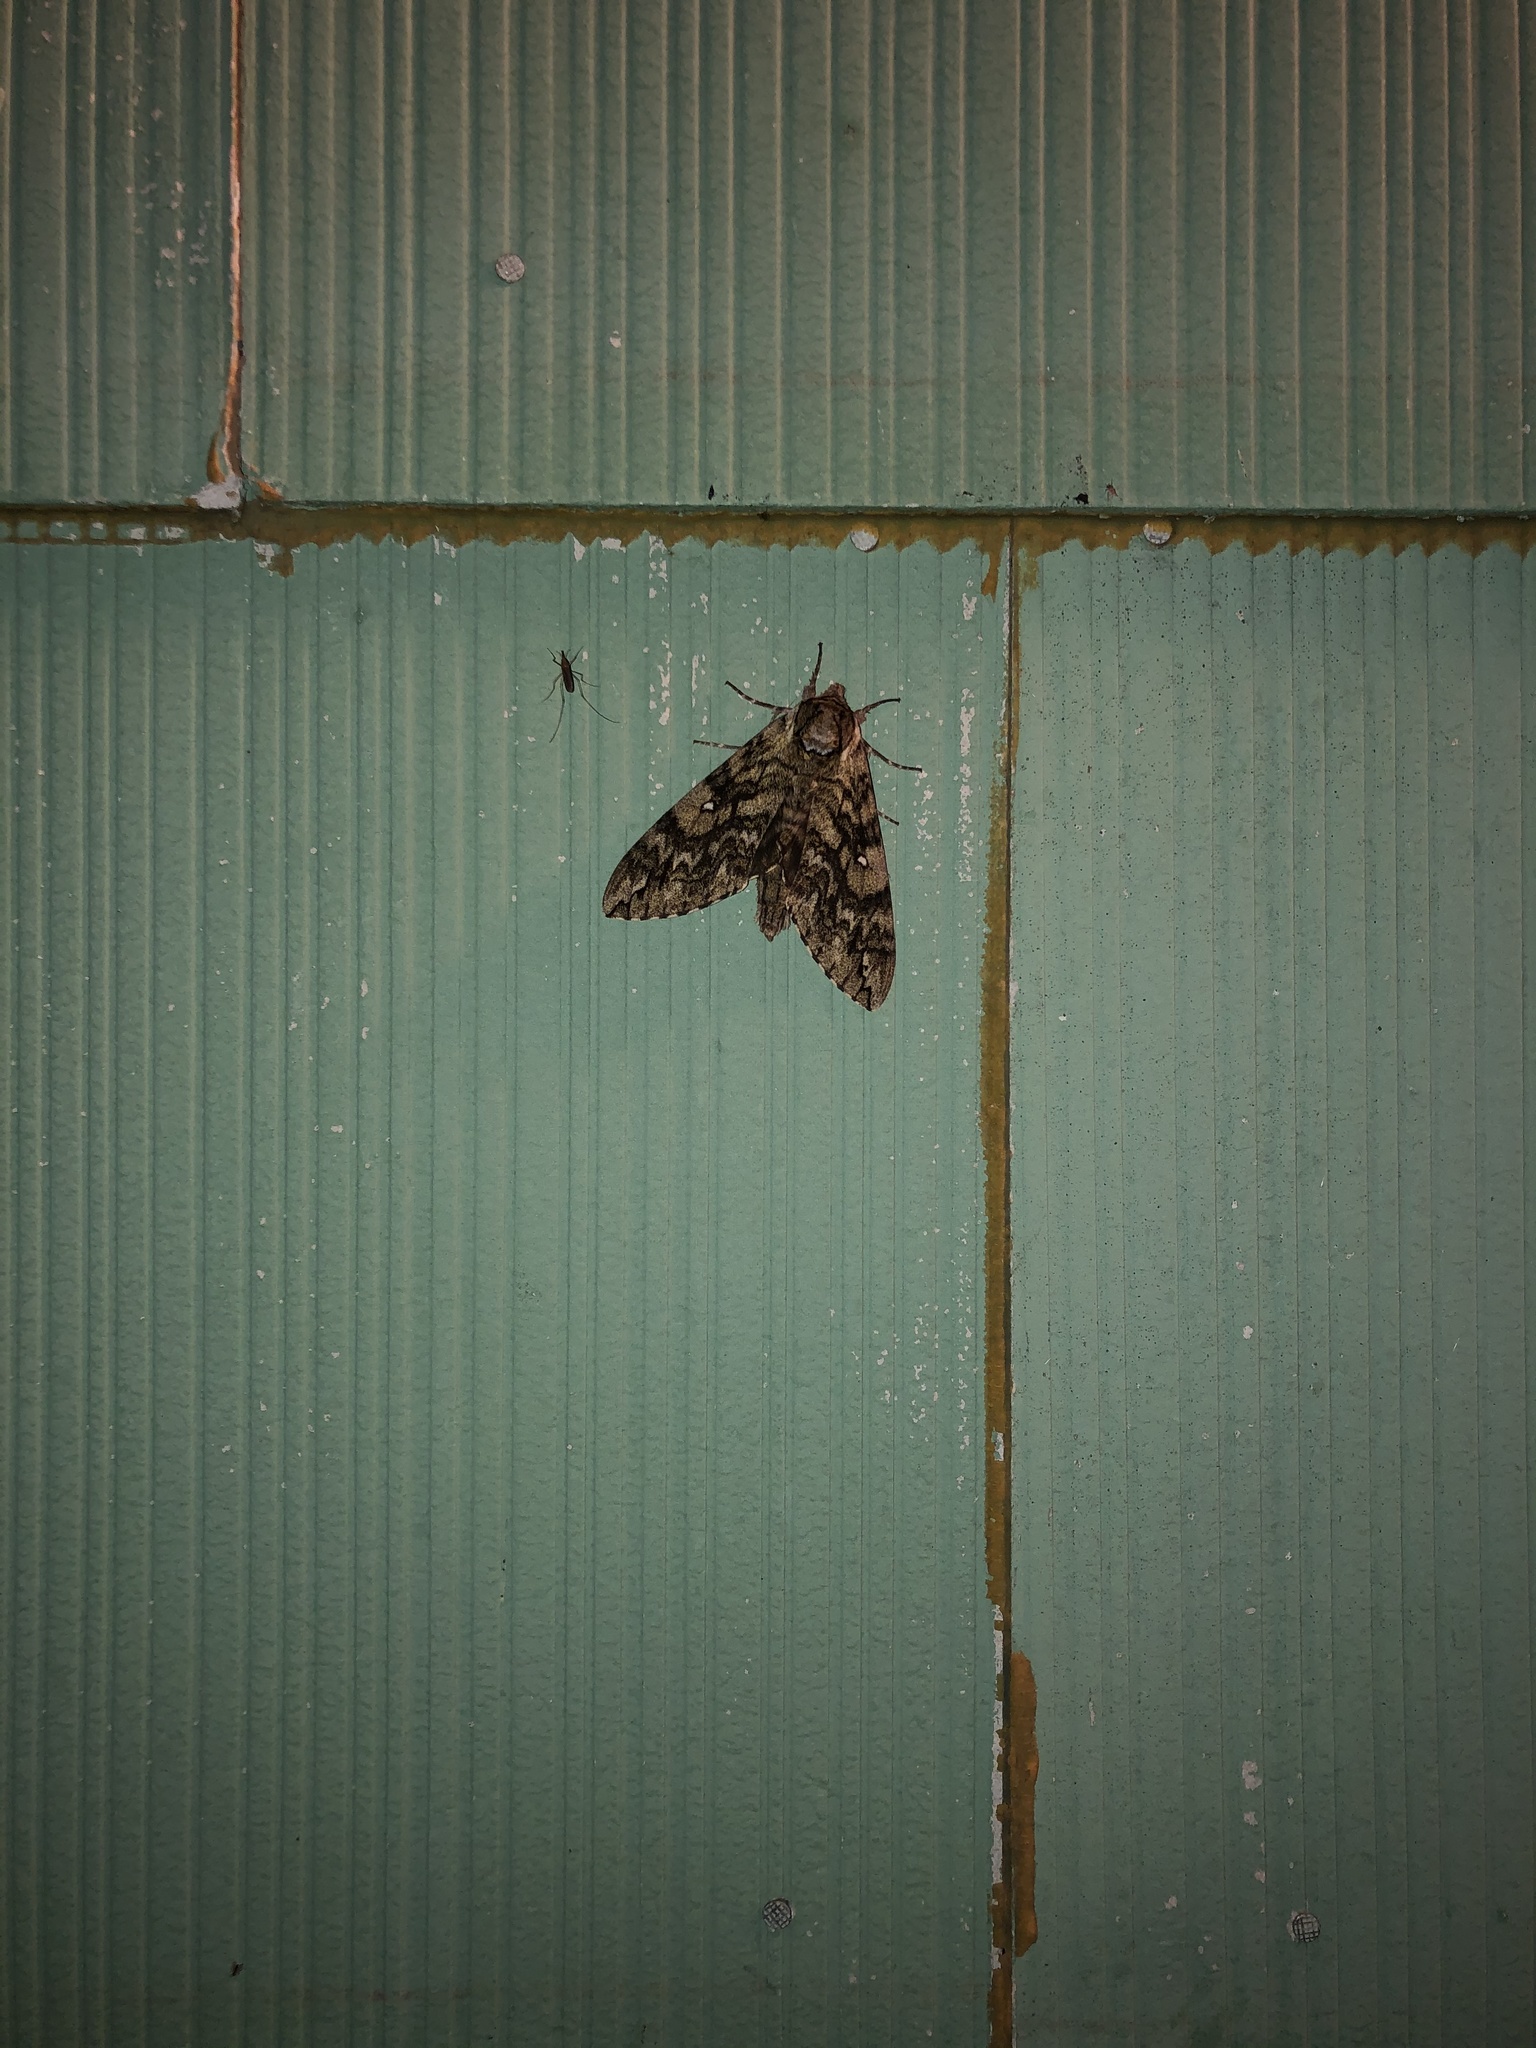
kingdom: Animalia
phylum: Arthropoda
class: Insecta
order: Lepidoptera
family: Sphingidae
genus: Ceratomia
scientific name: Ceratomia undulosa
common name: Waved sphinx
